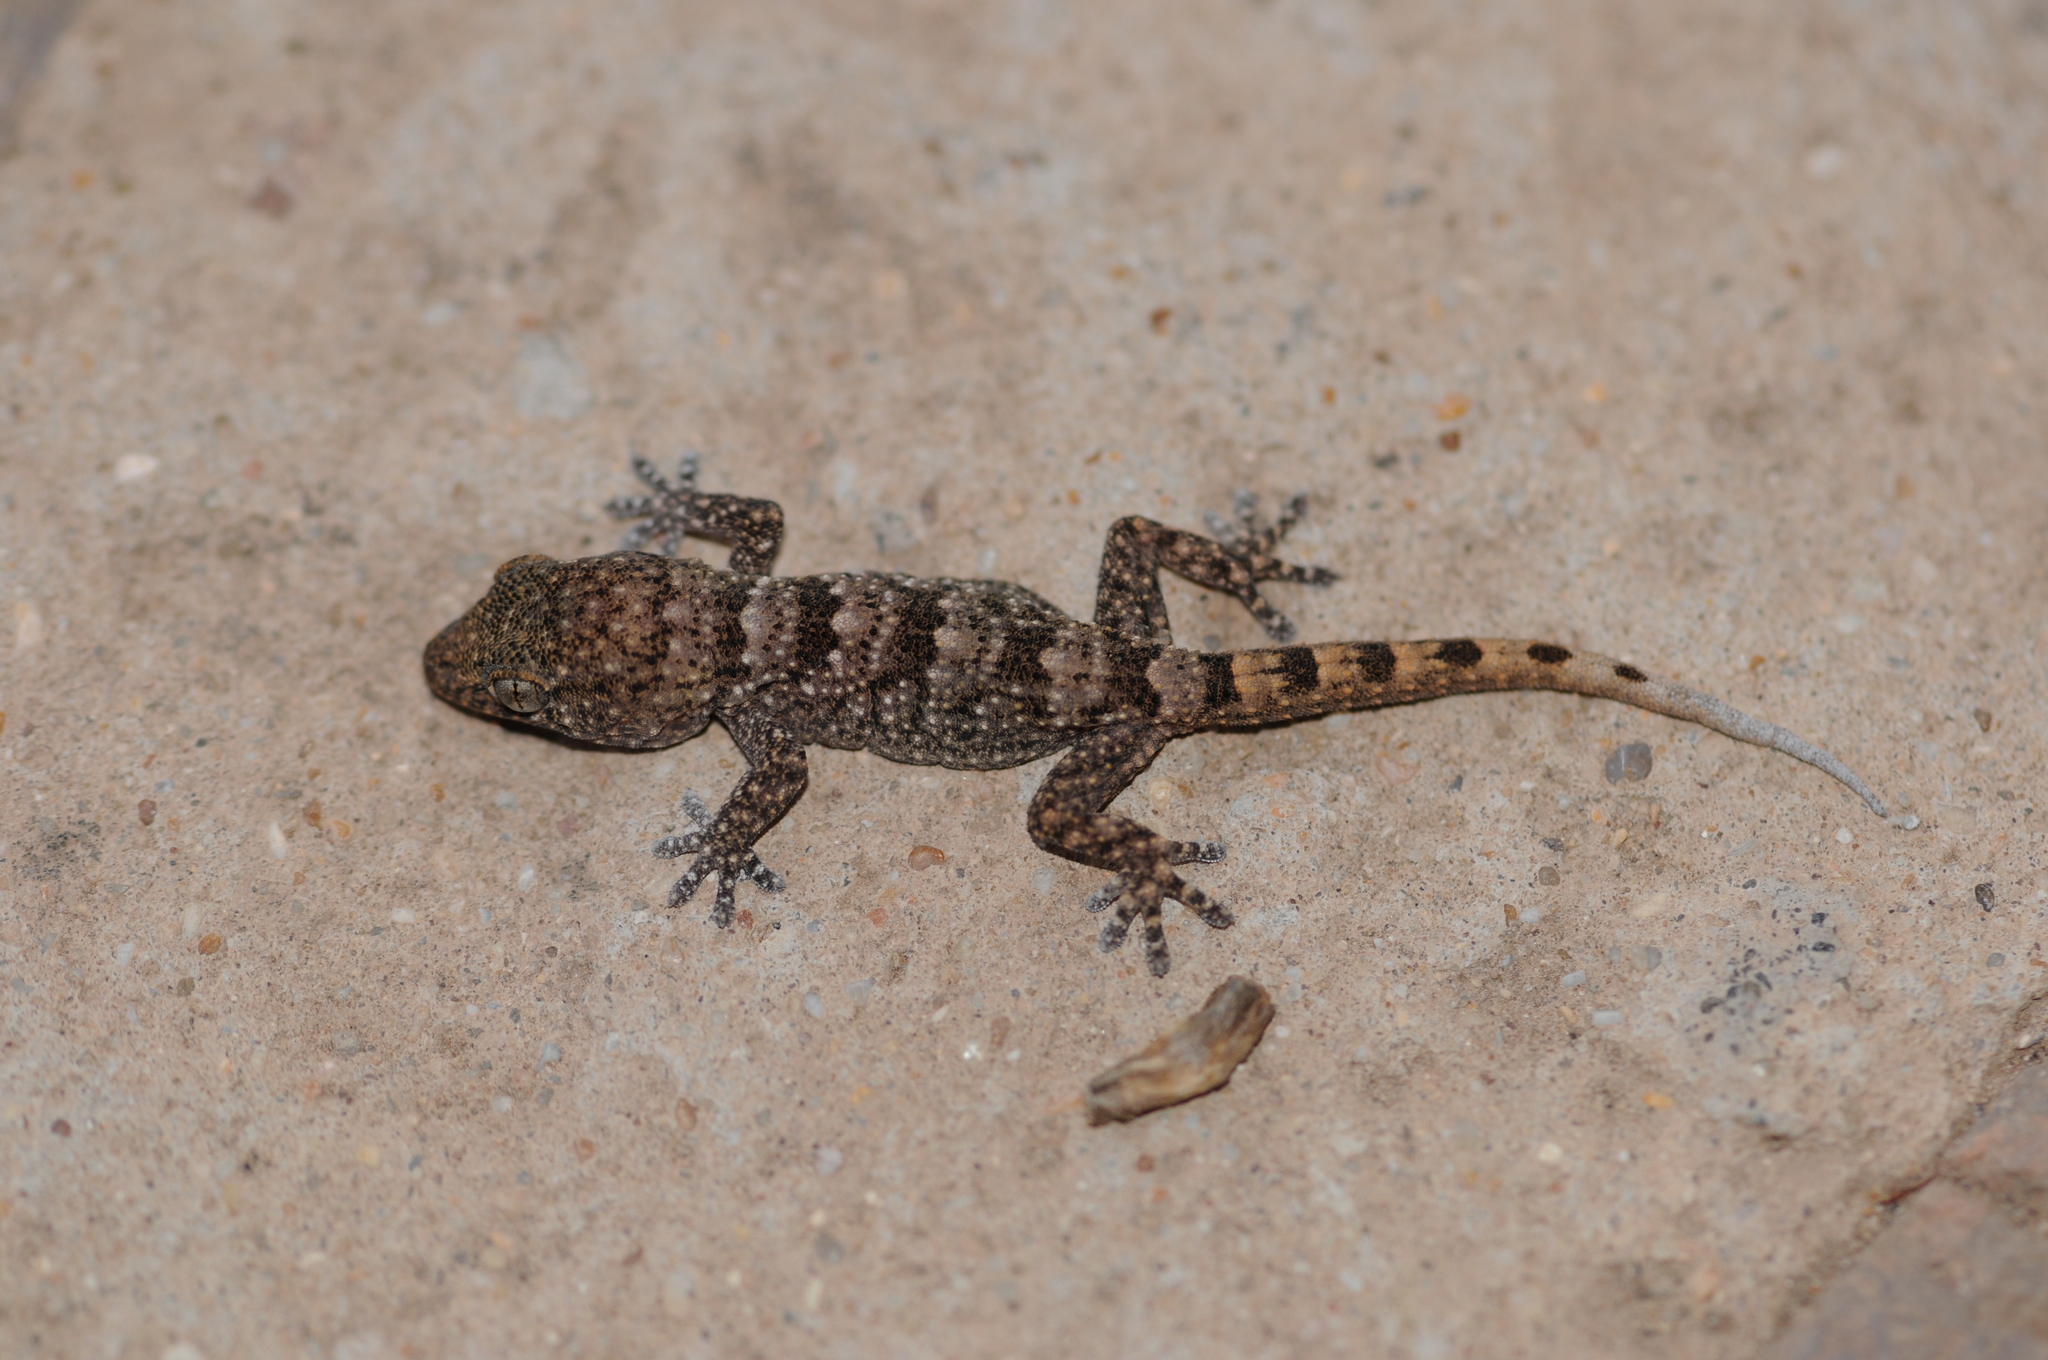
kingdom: Animalia
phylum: Chordata
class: Squamata
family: Phyllodactylidae
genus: Tarentola
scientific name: Tarentola boettgeri
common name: Boettger's wall gecko
